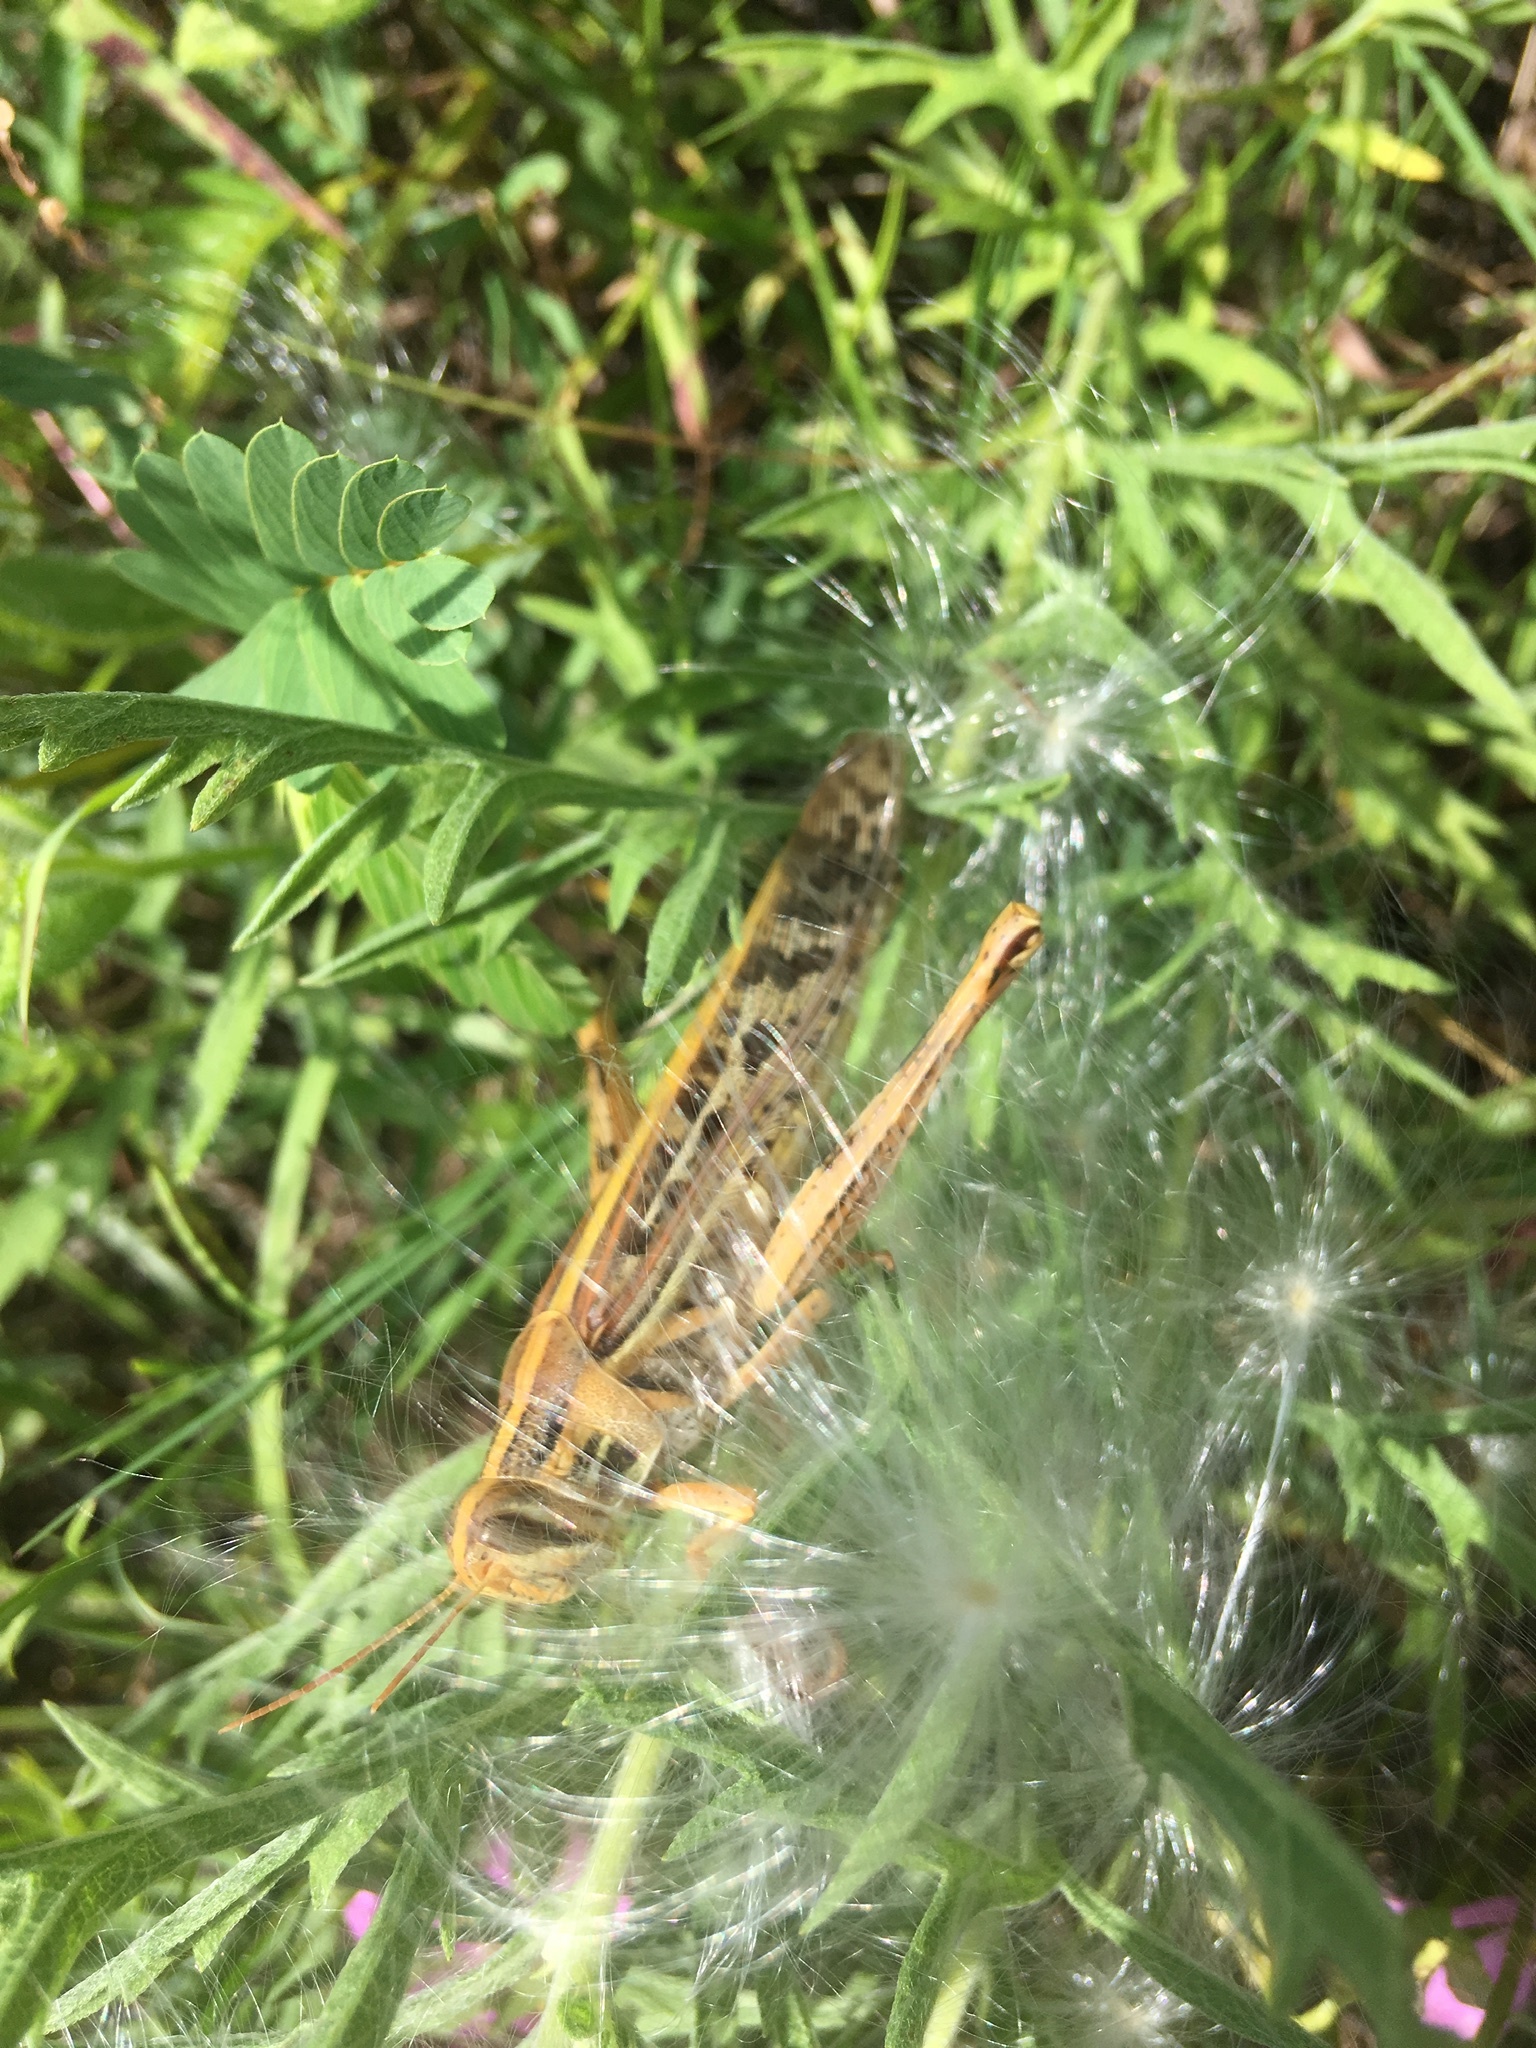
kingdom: Animalia
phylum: Arthropoda
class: Insecta
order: Orthoptera
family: Acrididae
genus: Schistocerca
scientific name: Schistocerca americana
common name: American bird locust
